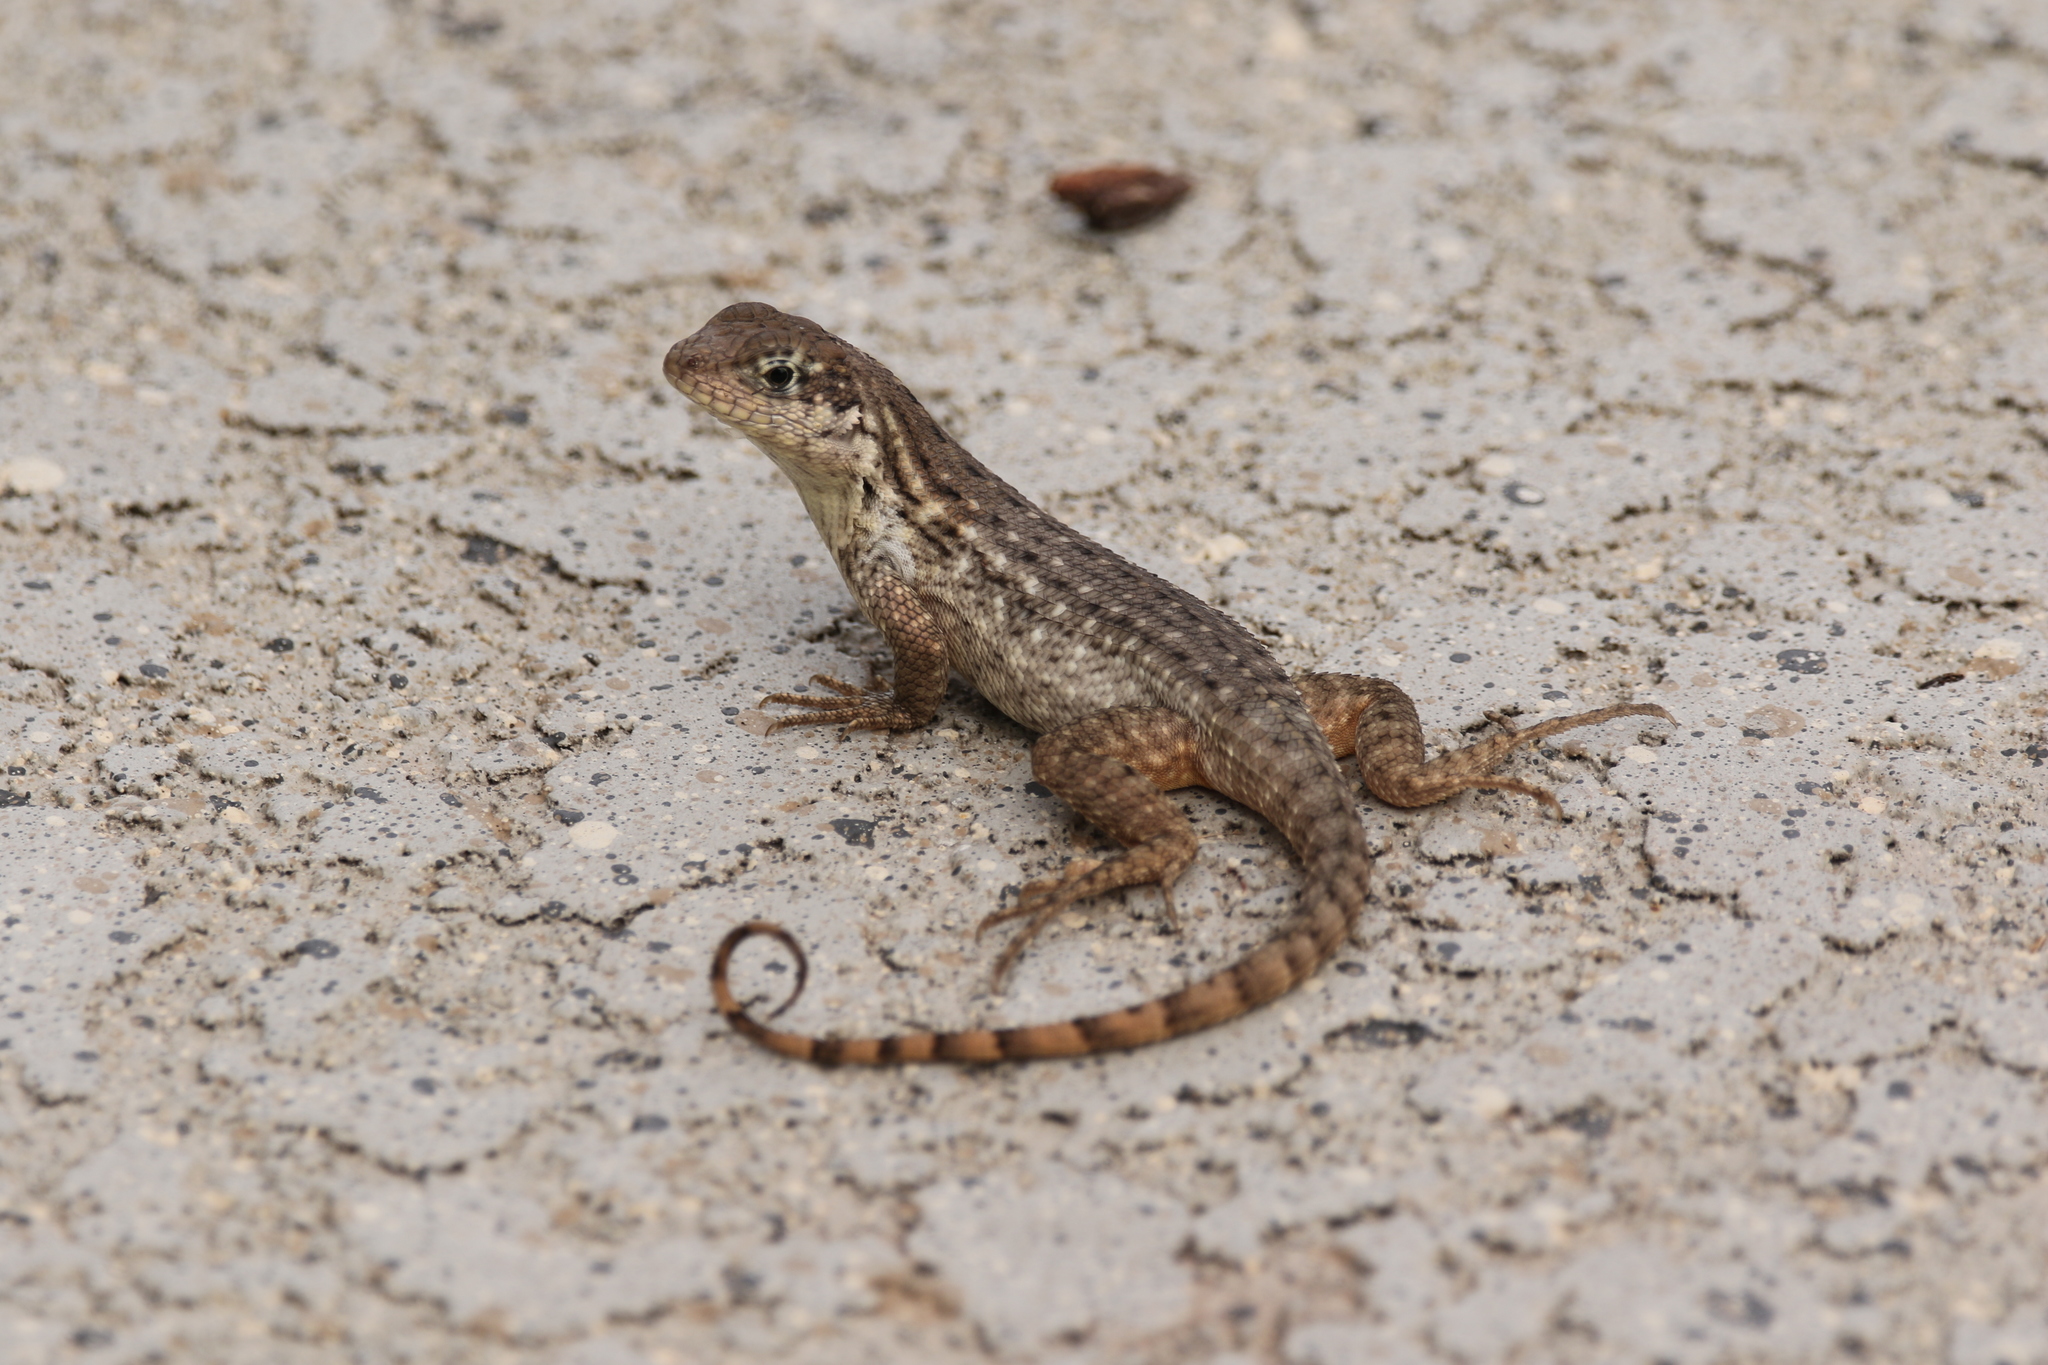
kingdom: Animalia
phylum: Chordata
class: Squamata
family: Leiocephalidae
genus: Leiocephalus
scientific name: Leiocephalus carinatus
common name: Northern curly-tailed lizard
